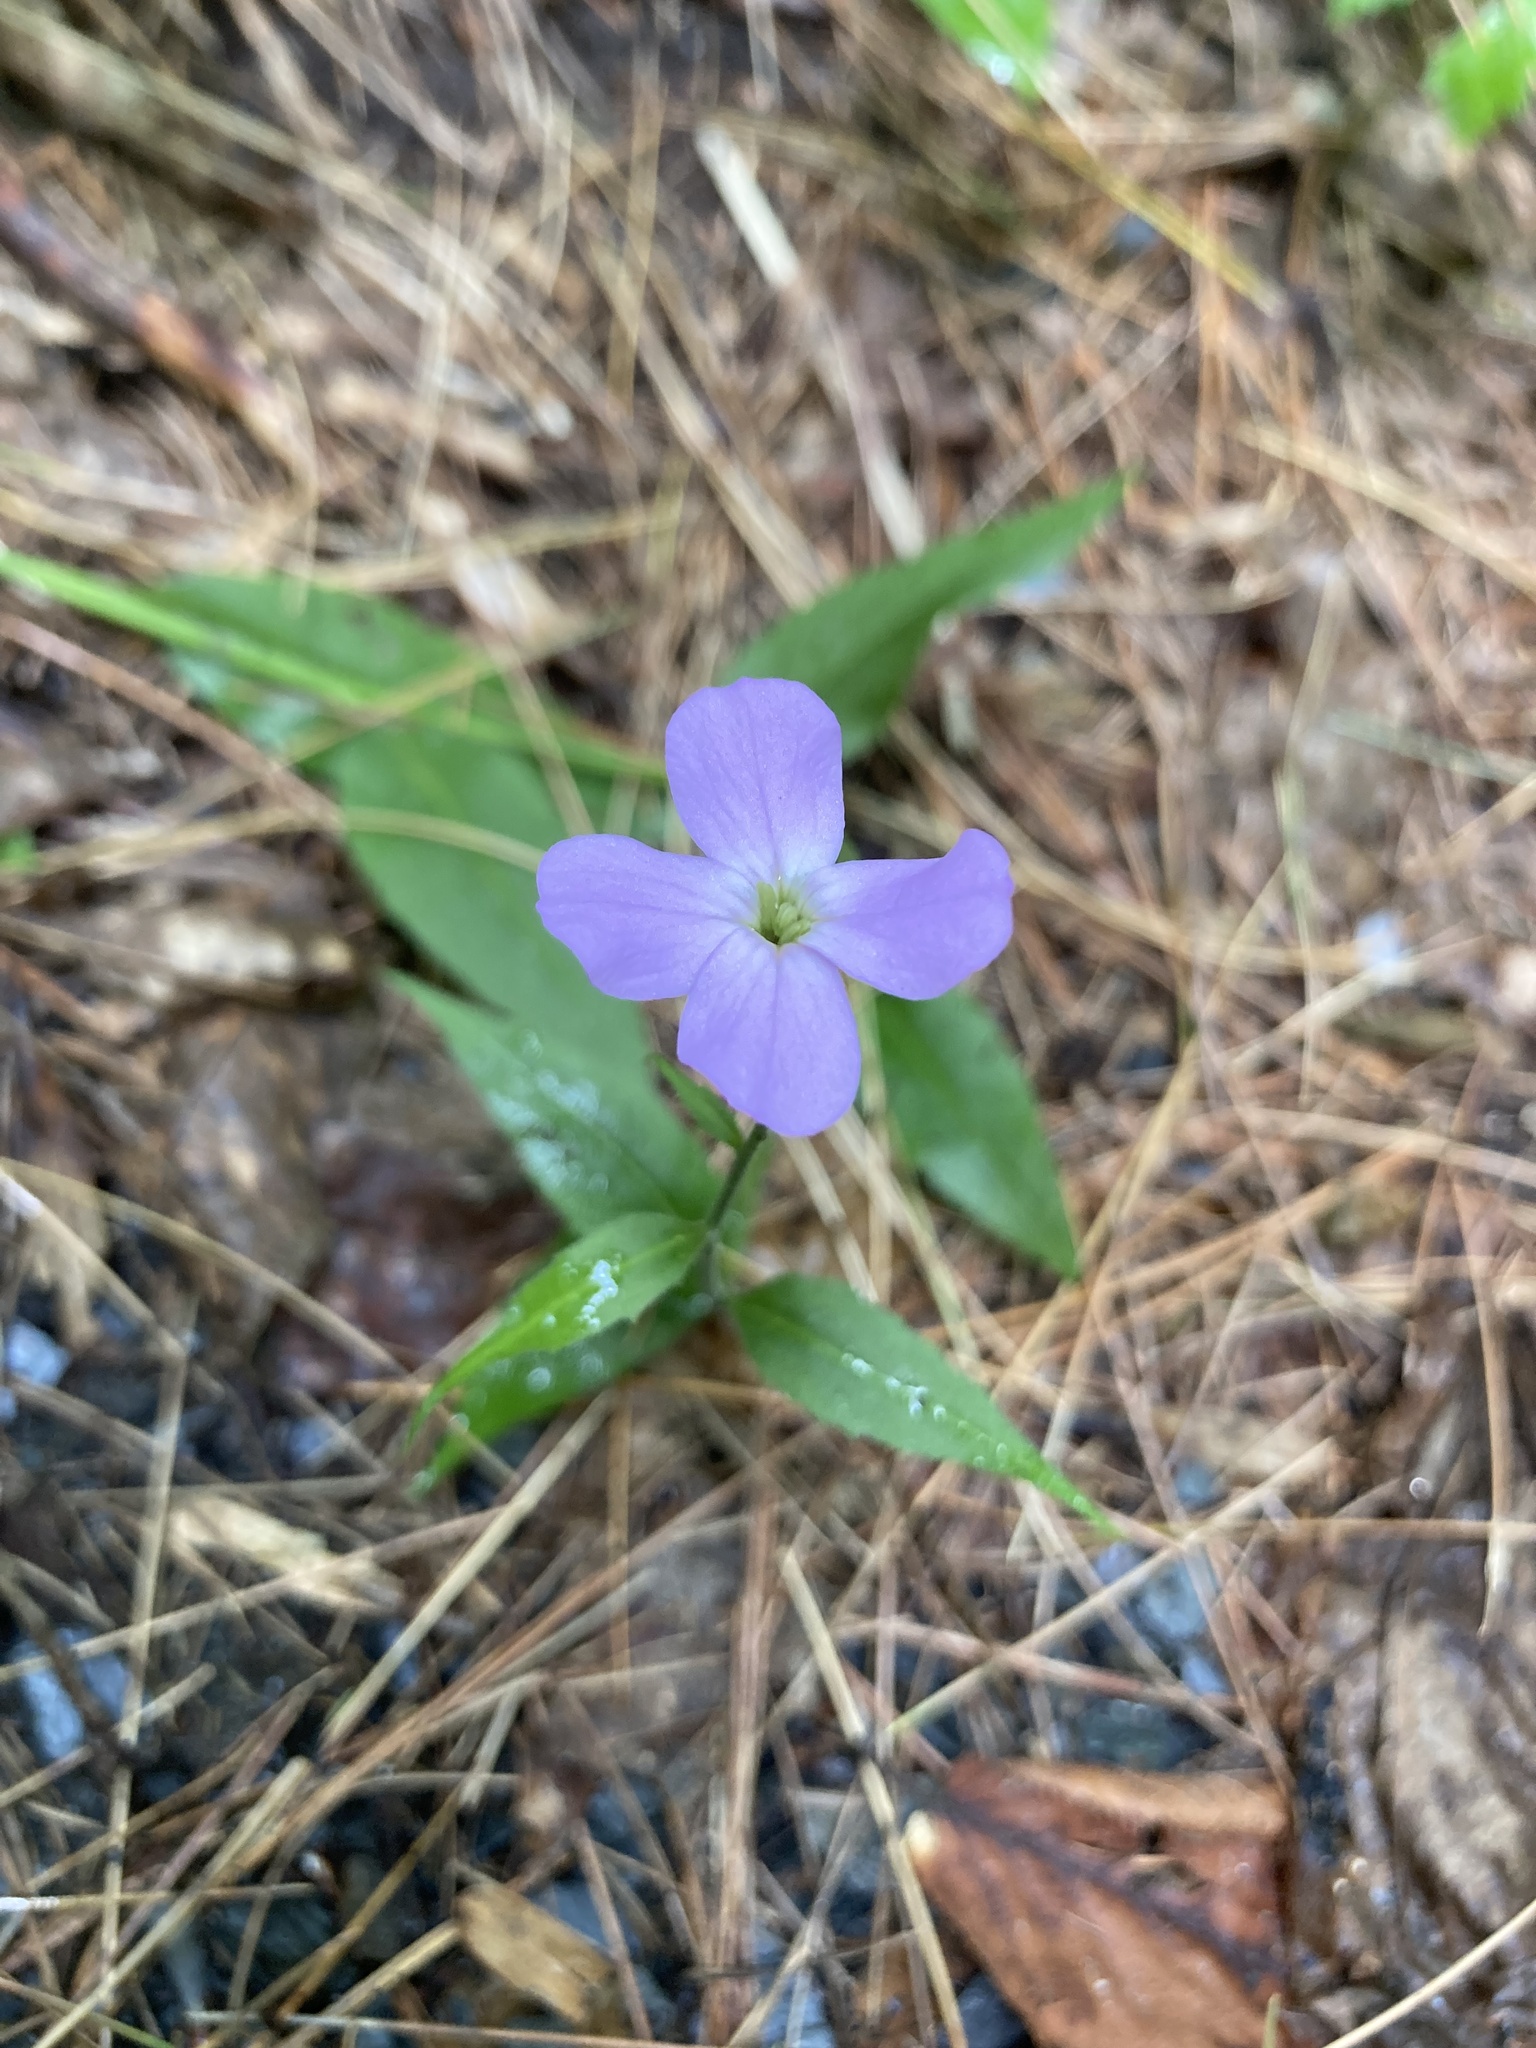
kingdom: Plantae
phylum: Tracheophyta
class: Magnoliopsida
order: Brassicales
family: Brassicaceae
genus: Hesperis
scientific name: Hesperis matronalis
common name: Dame's-violet
